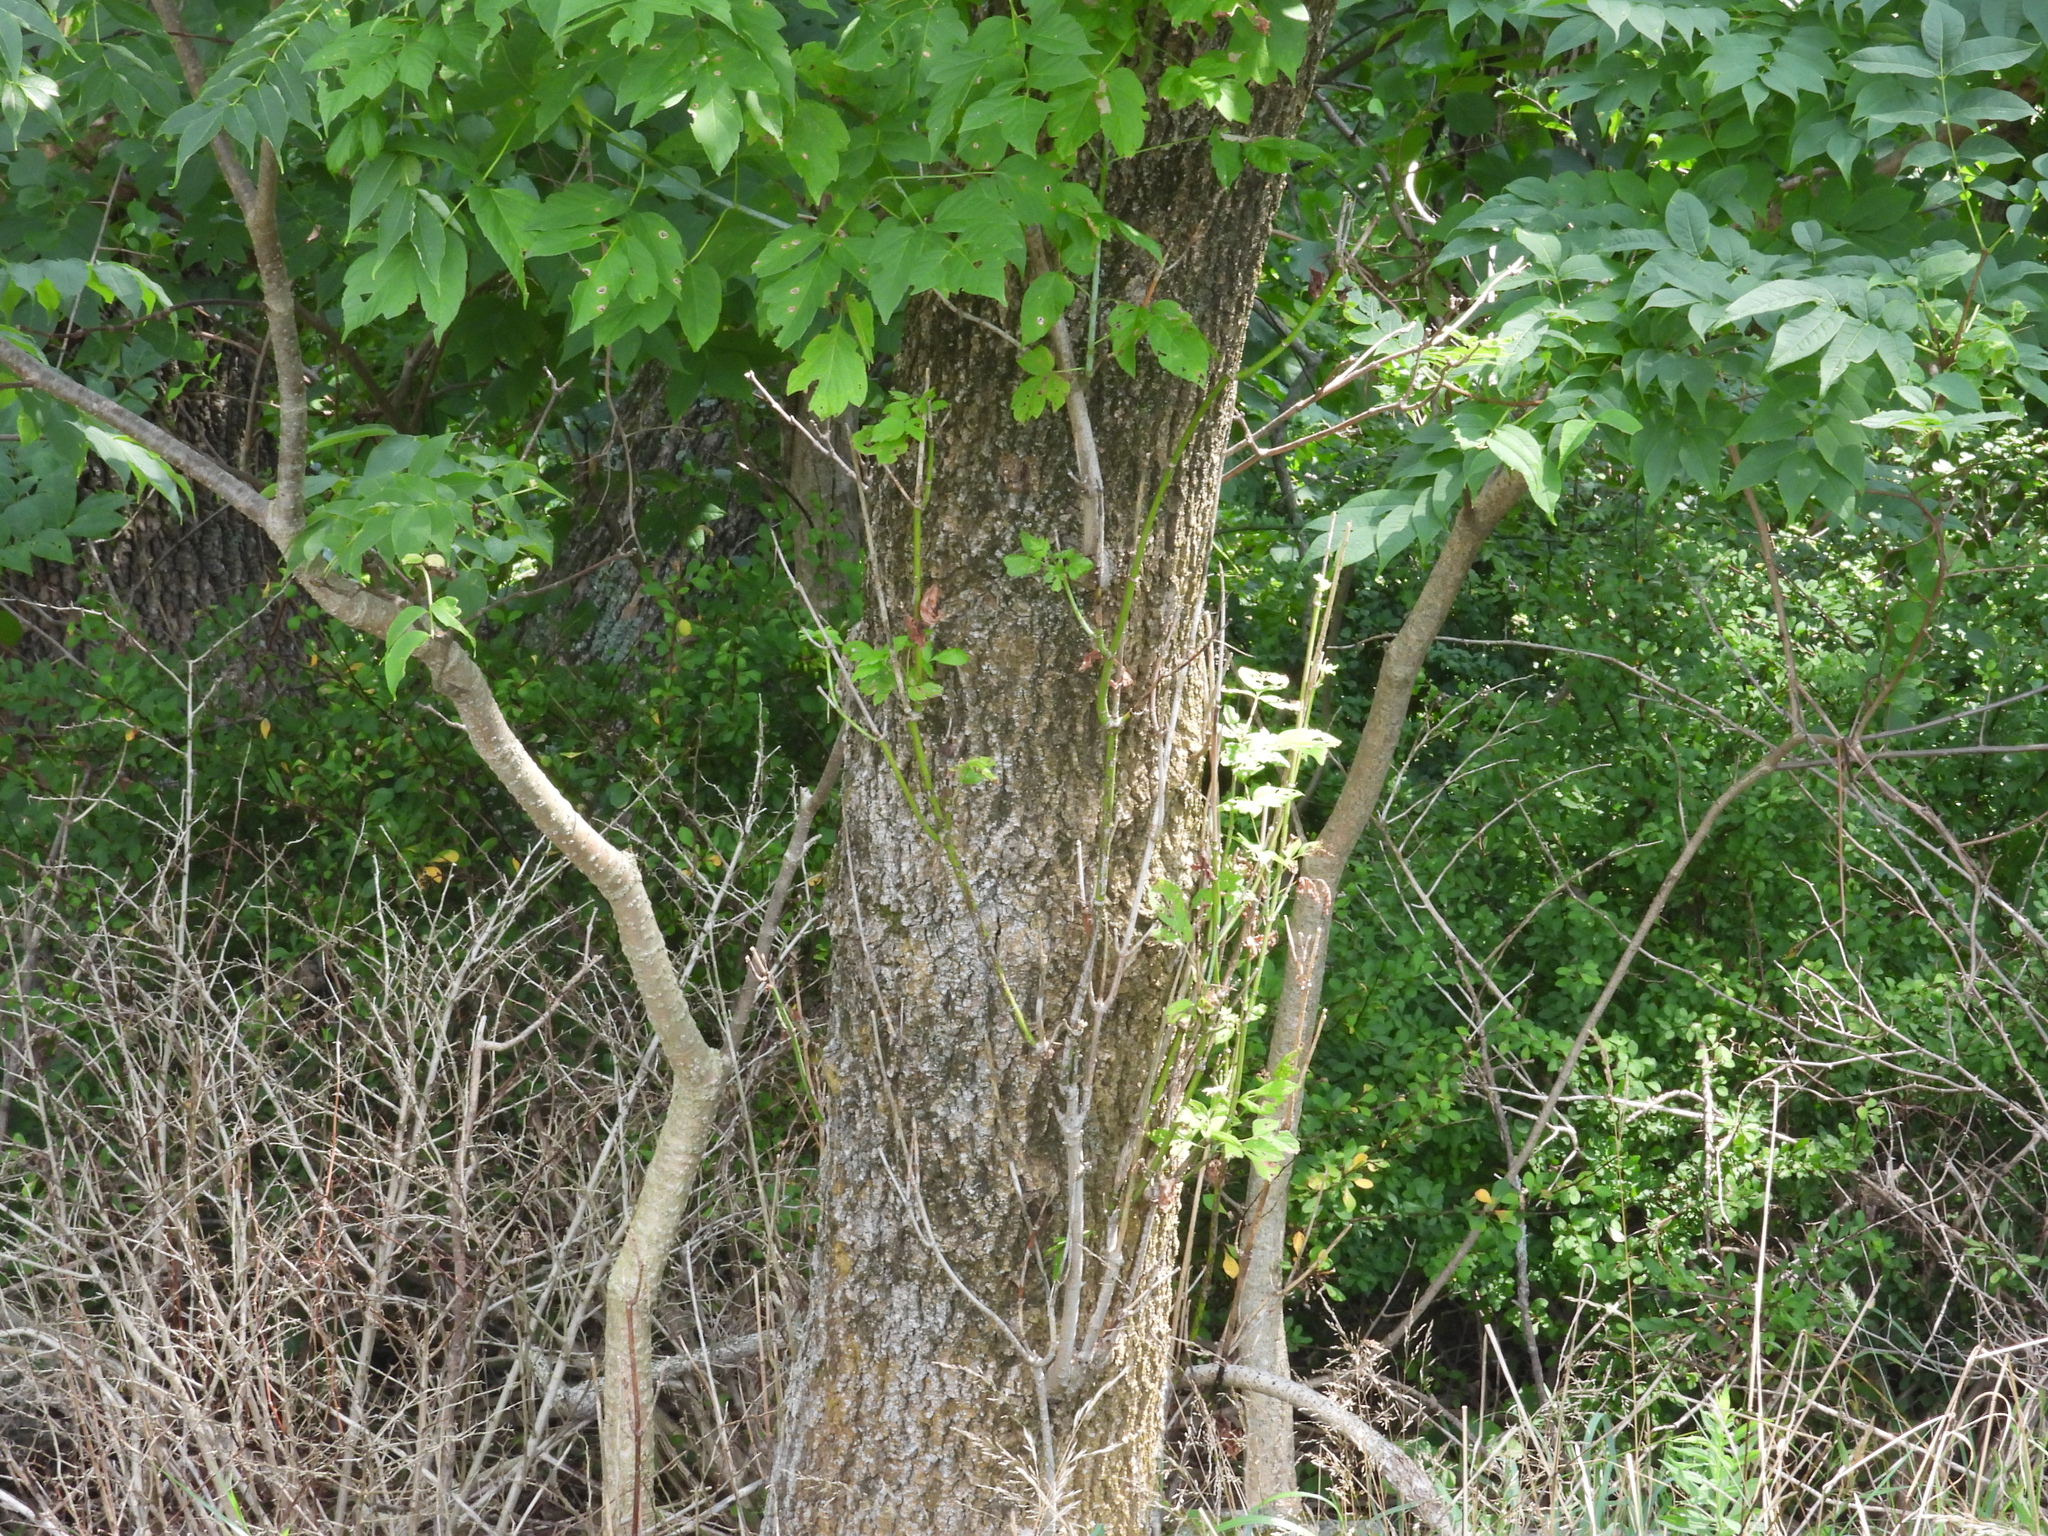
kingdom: Plantae
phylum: Tracheophyta
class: Magnoliopsida
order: Sapindales
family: Sapindaceae
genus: Acer
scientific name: Acer negundo
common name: Ashleaf maple
